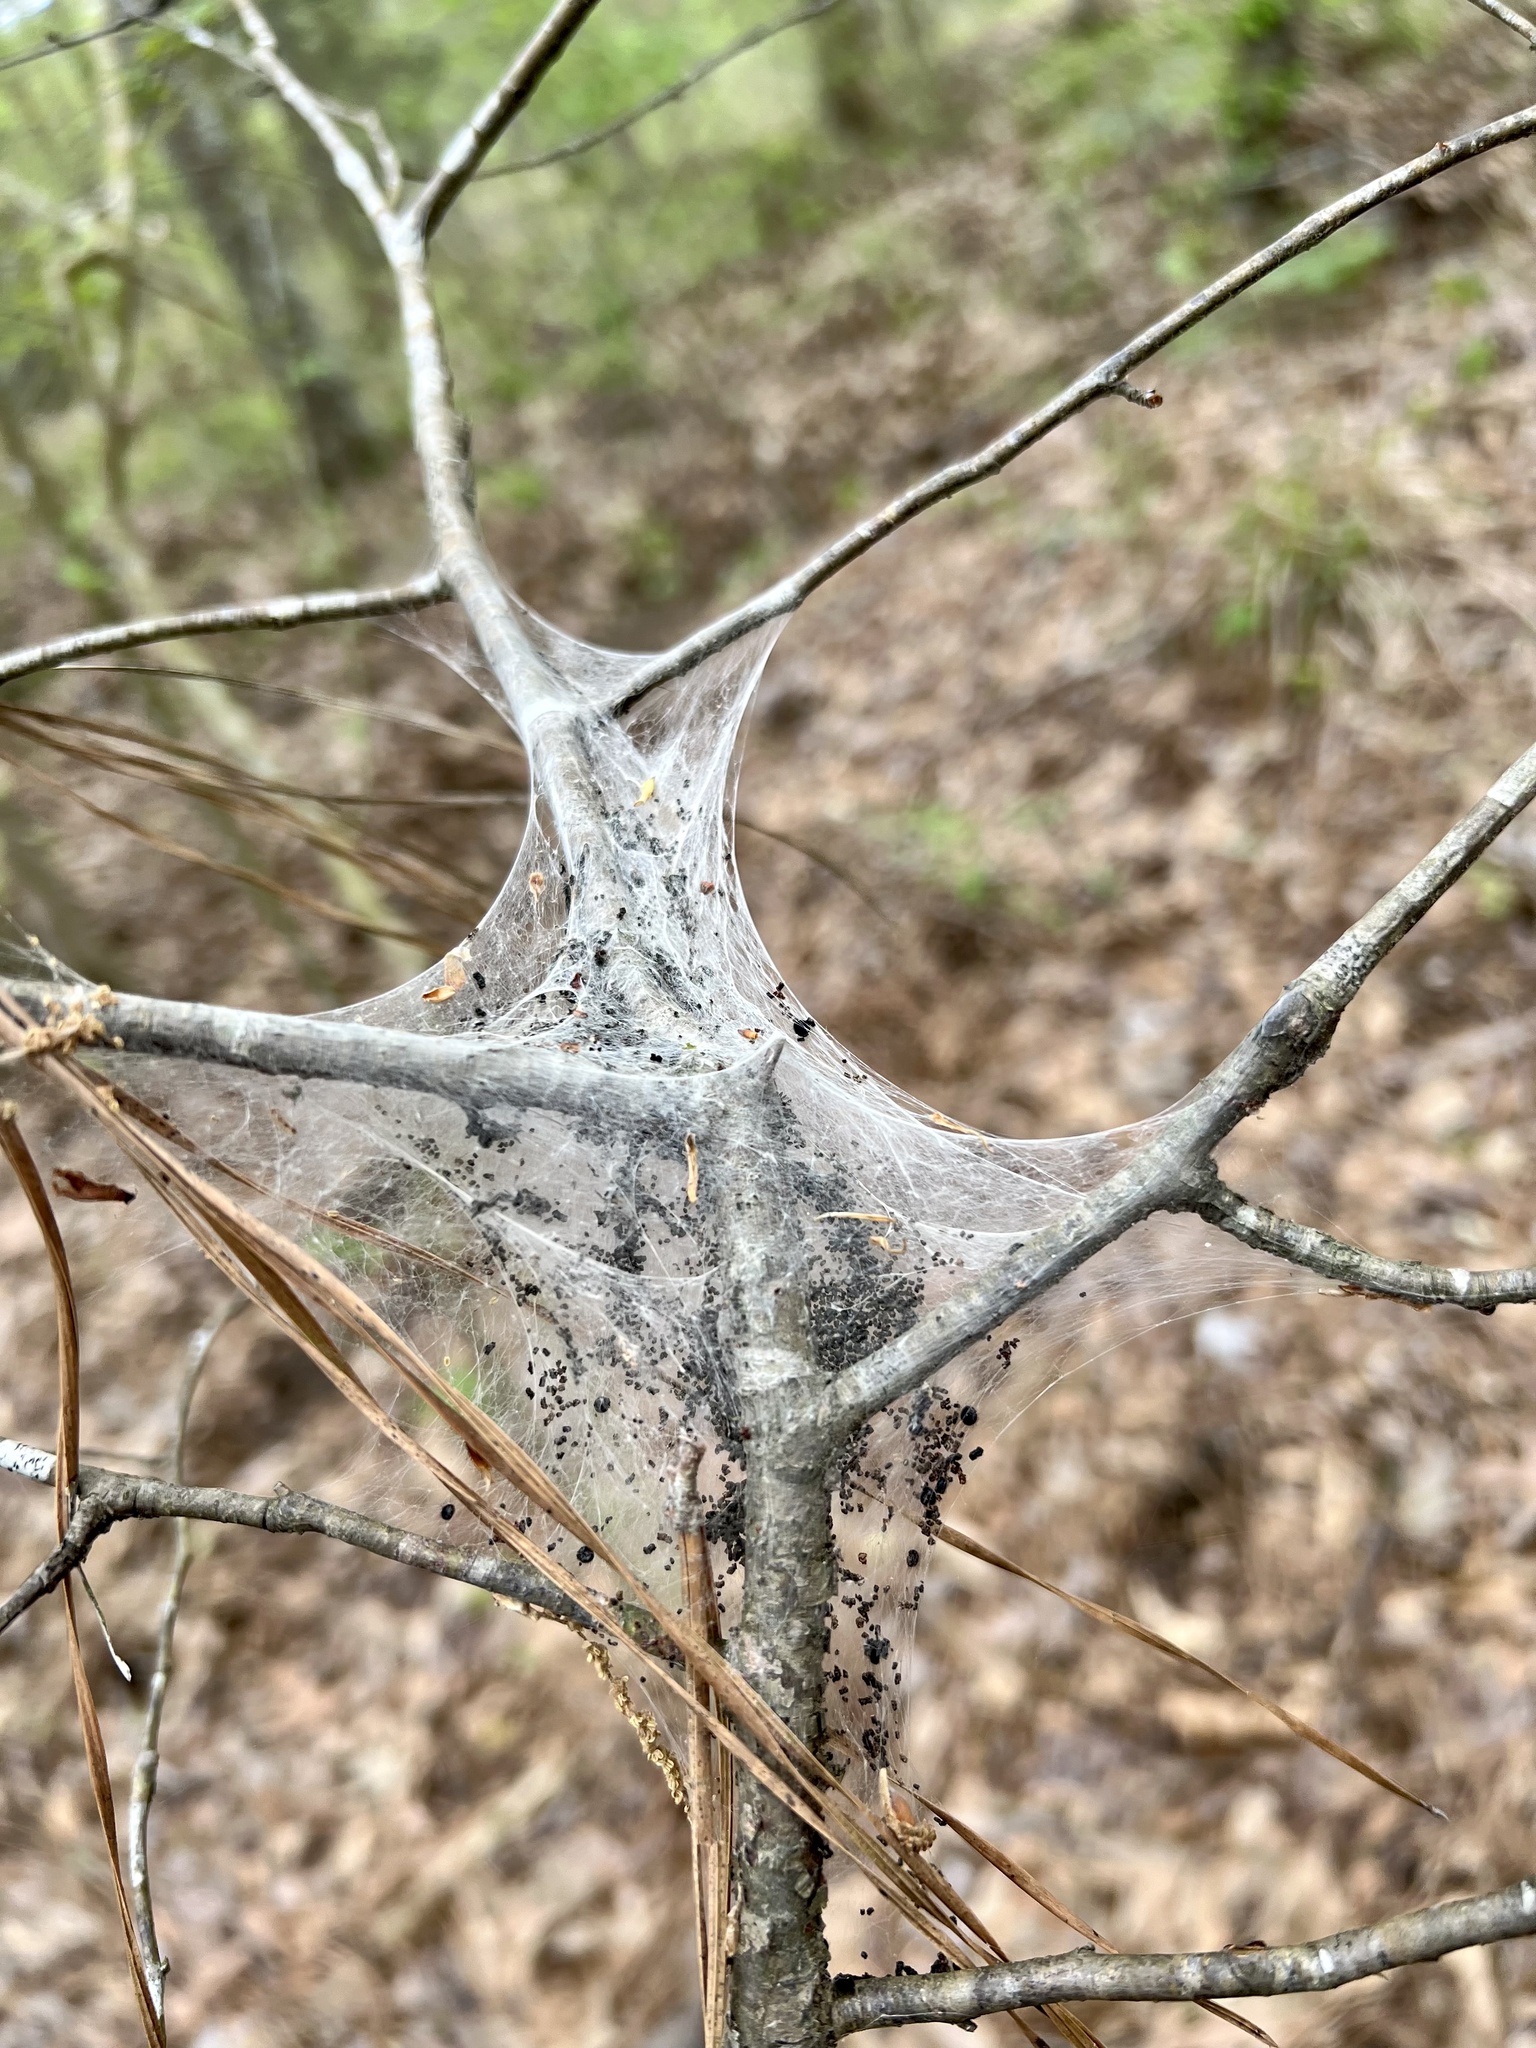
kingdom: Animalia
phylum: Arthropoda
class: Insecta
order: Lepidoptera
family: Lasiocampidae
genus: Malacosoma
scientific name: Malacosoma americana
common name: Eastern tent caterpillar moth
